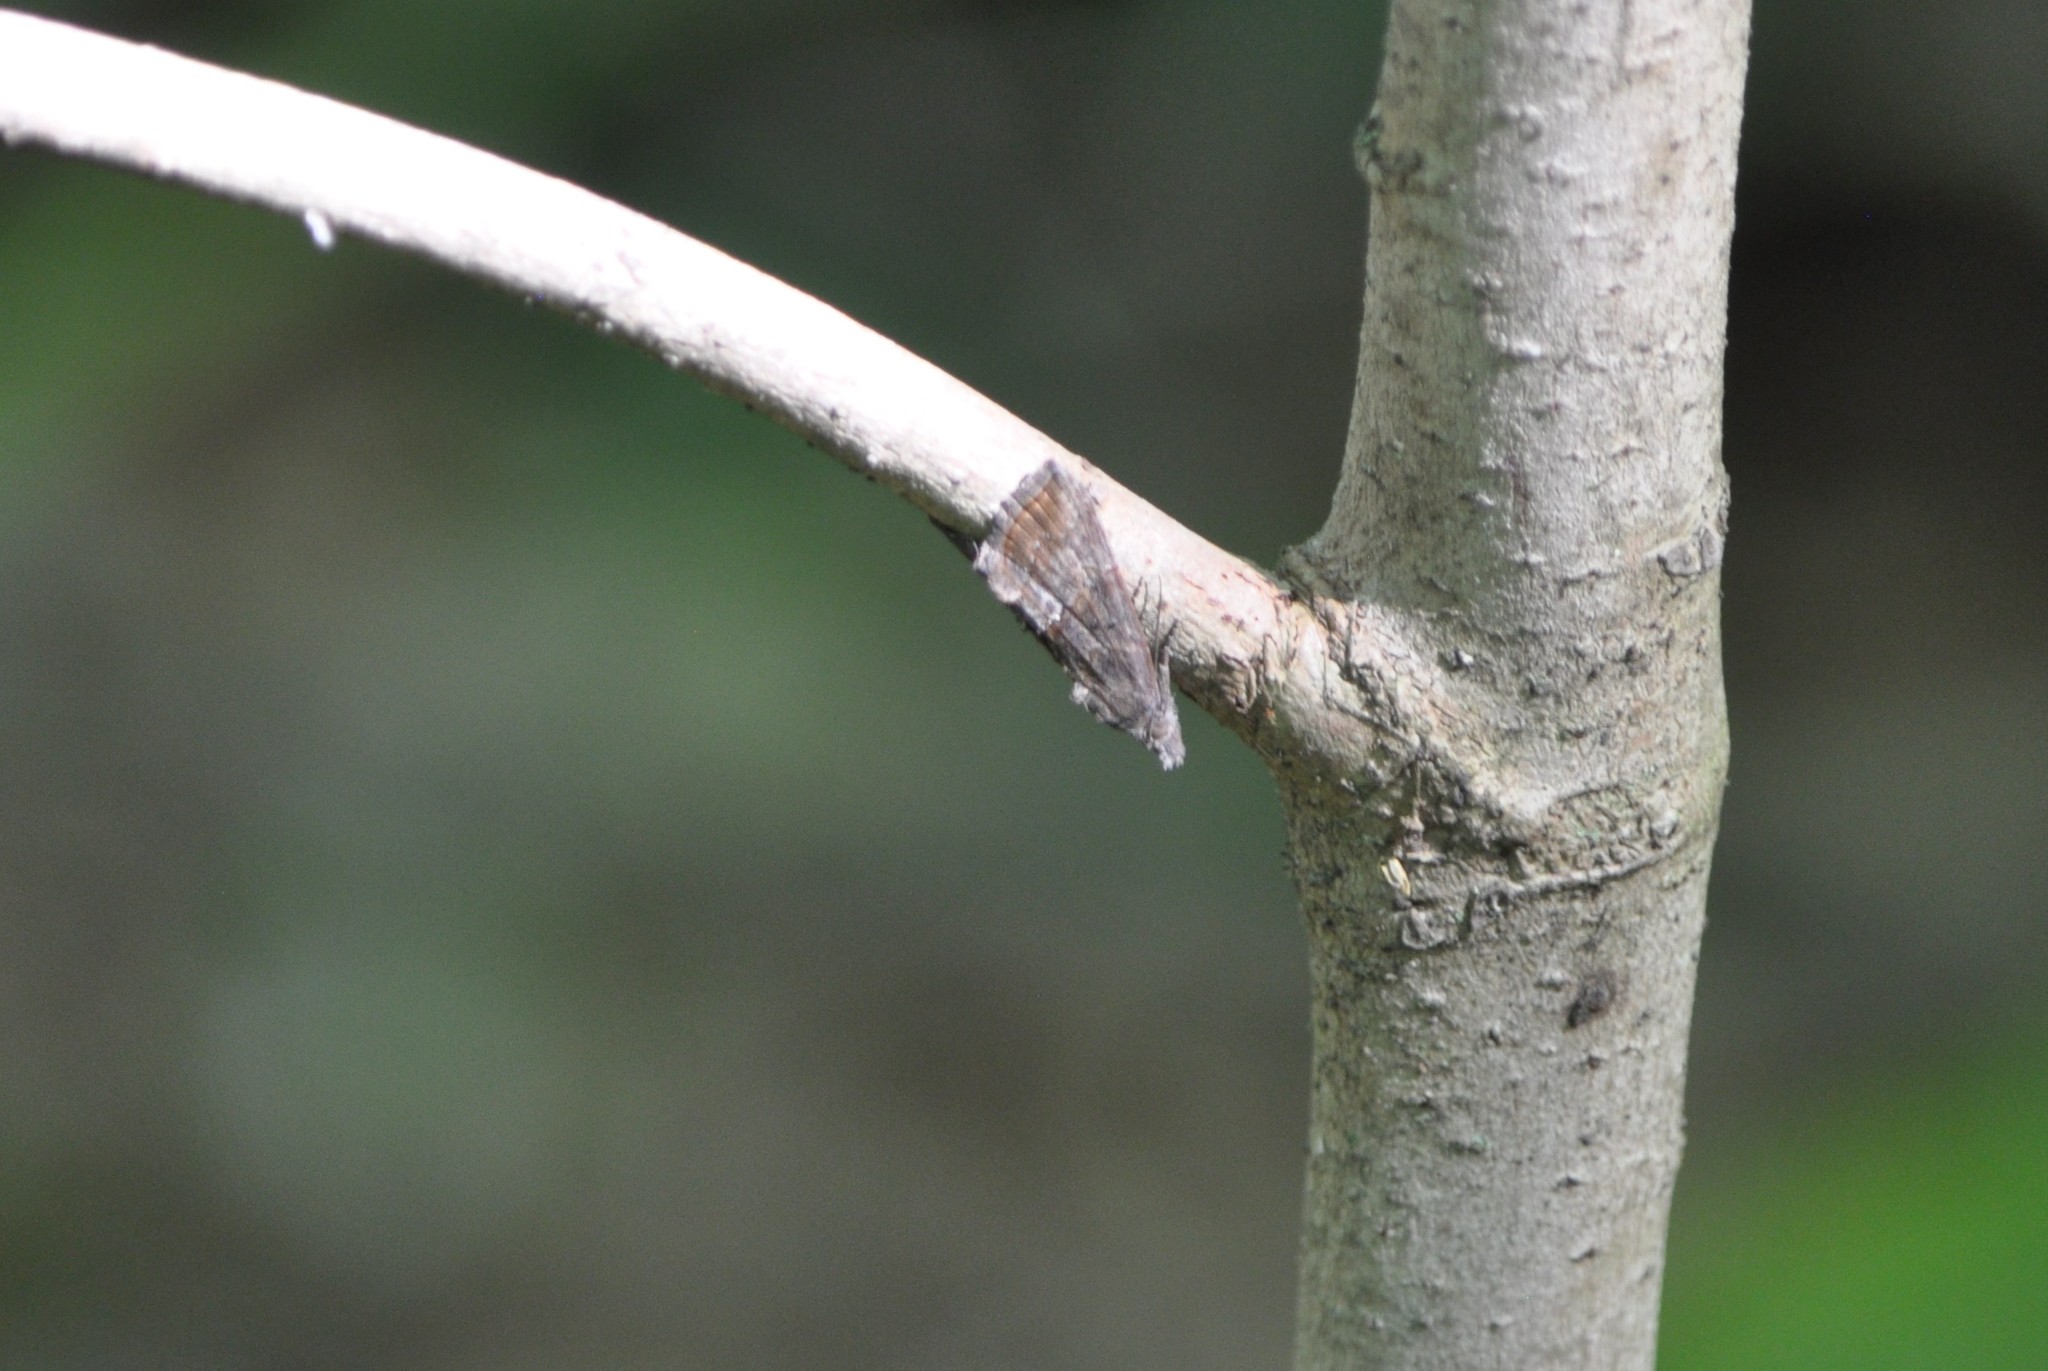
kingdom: Animalia
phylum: Arthropoda
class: Insecta
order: Lepidoptera
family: Erebidae
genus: Hypena
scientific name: Hypena scabra
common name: Green cloverworm
